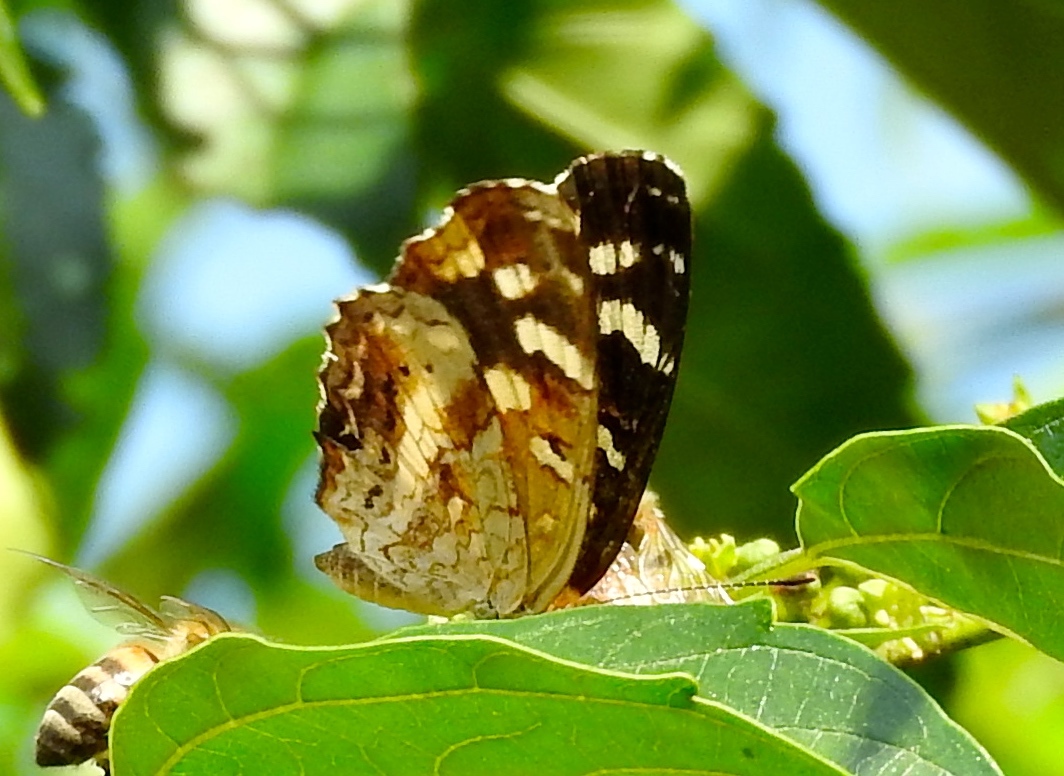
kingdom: Animalia
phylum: Arthropoda
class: Insecta
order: Lepidoptera
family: Nymphalidae
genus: Anthanassa
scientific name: Anthanassa tulcis
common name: Pale-banded crescent
